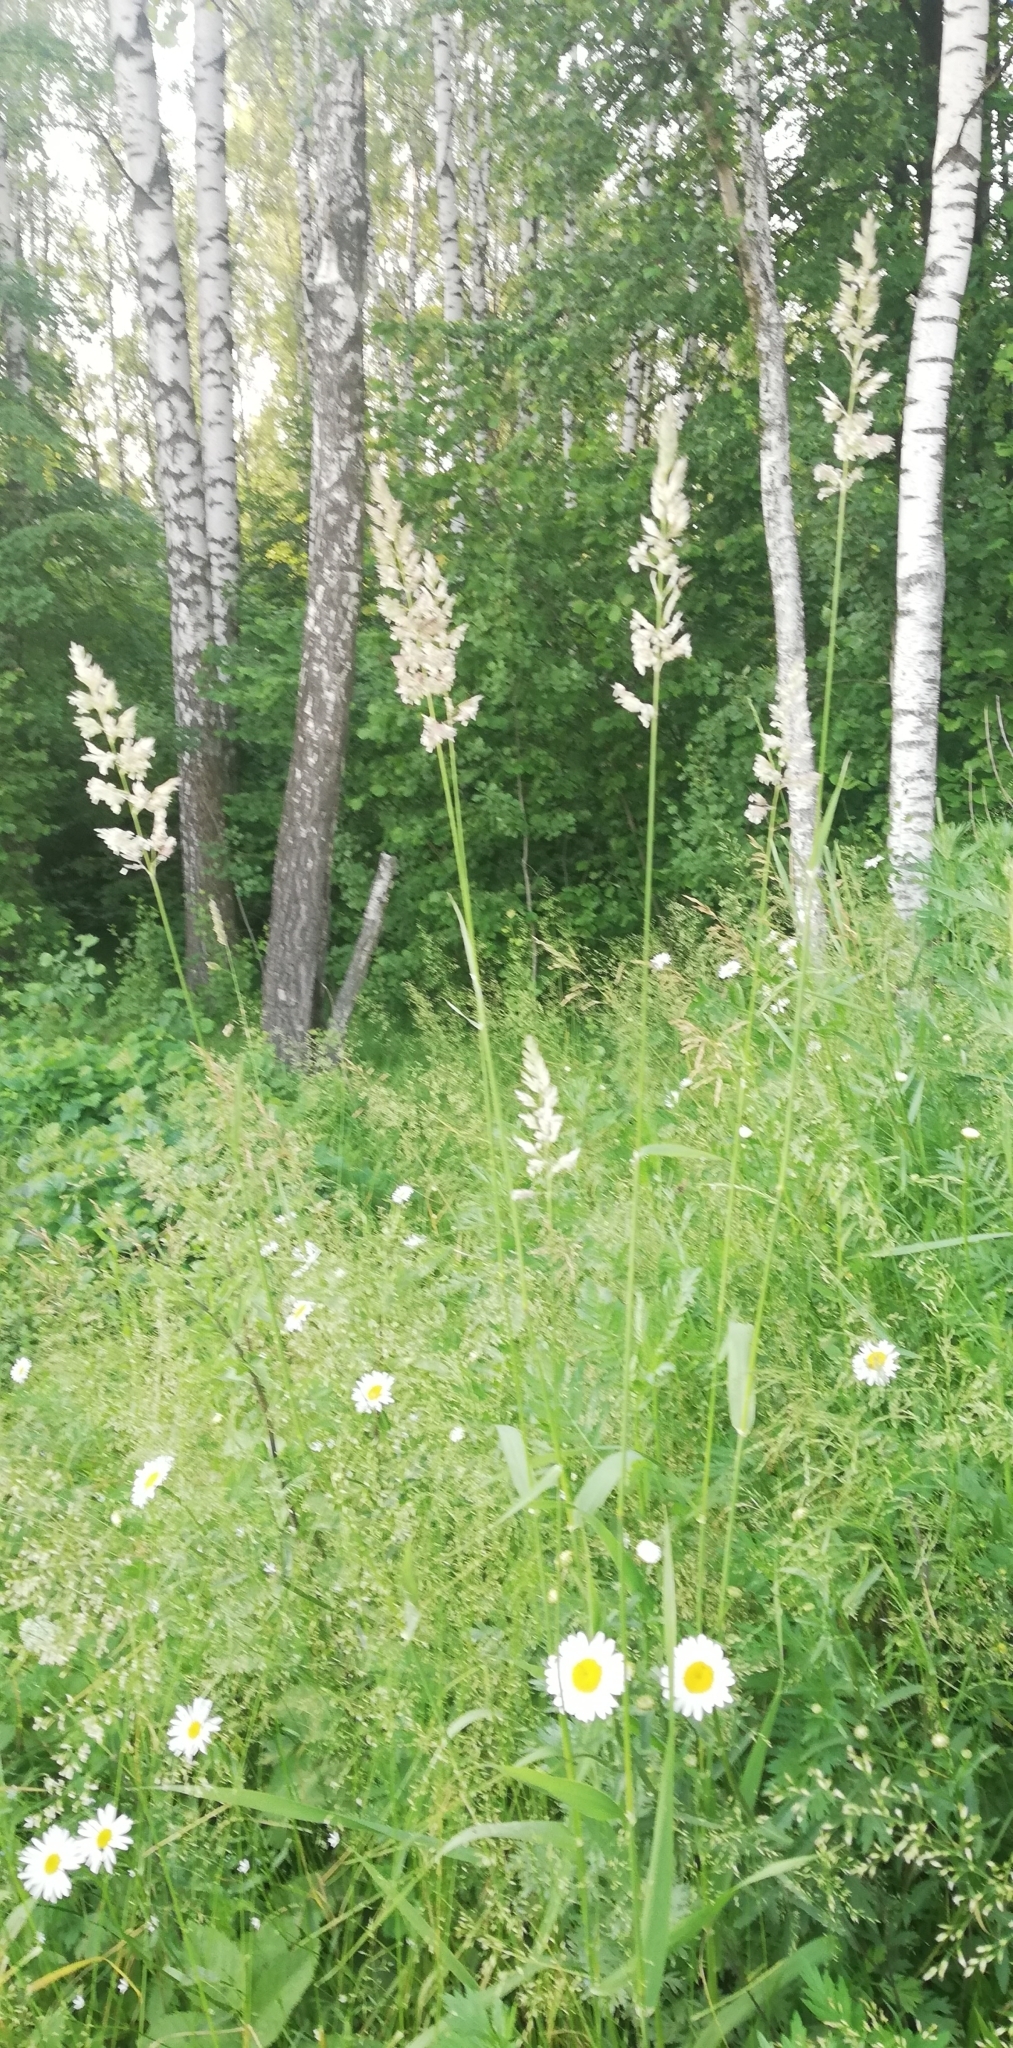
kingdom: Plantae
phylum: Tracheophyta
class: Liliopsida
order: Poales
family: Poaceae
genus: Phalaris
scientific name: Phalaris arundinacea
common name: Reed canary-grass
